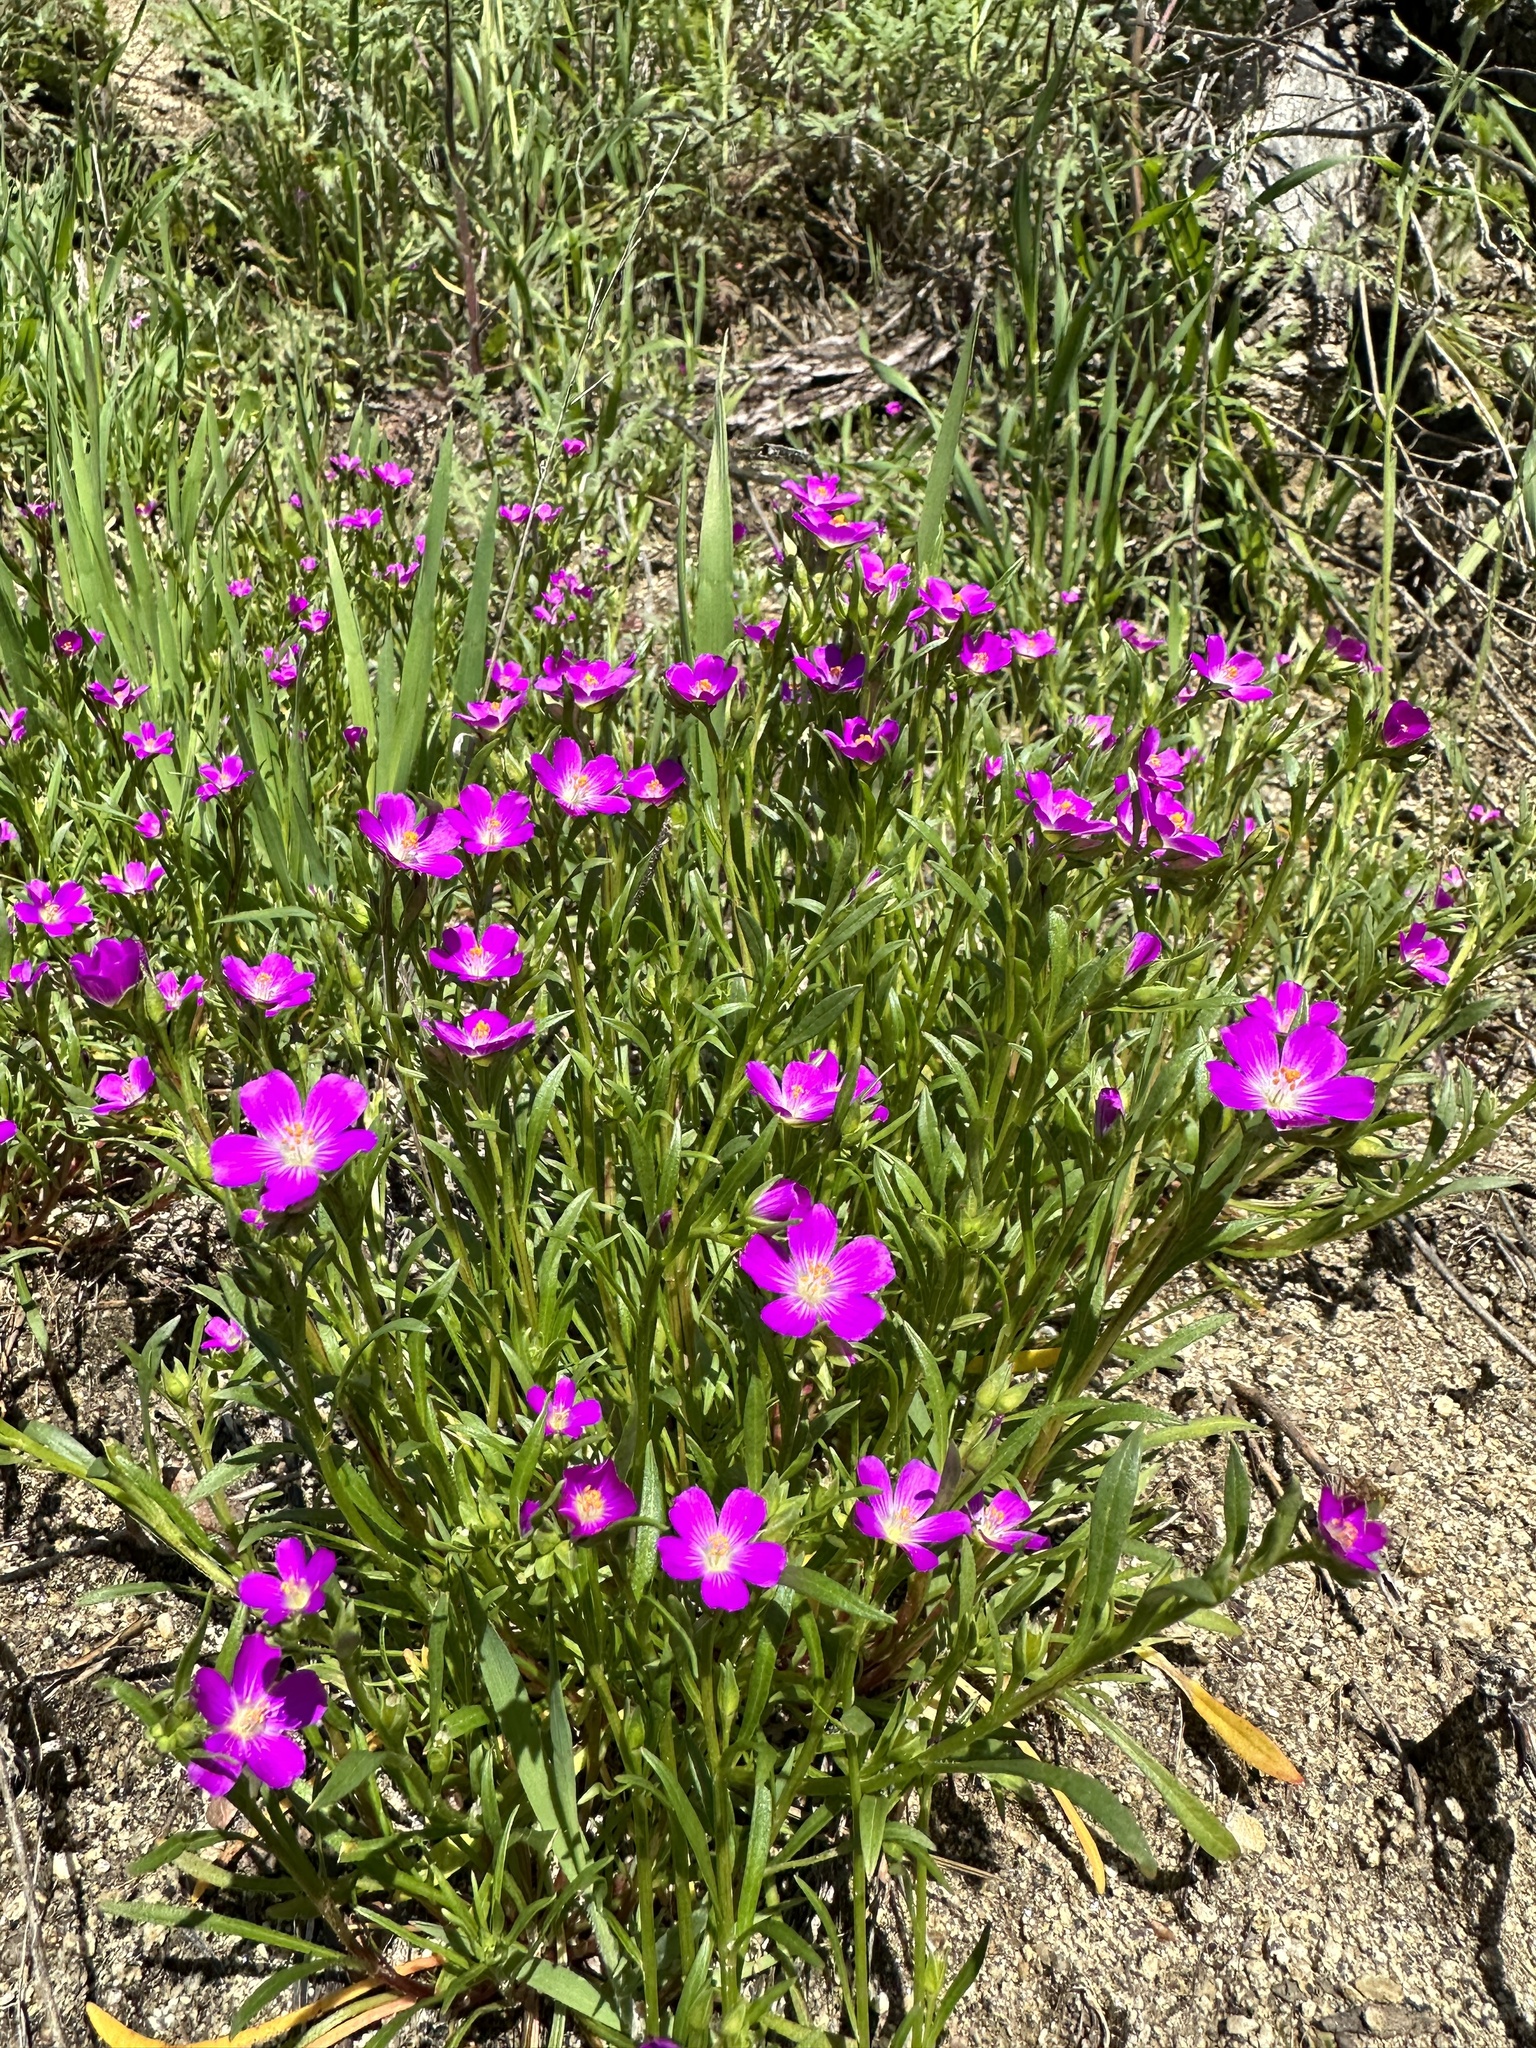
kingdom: Plantae
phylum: Tracheophyta
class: Magnoliopsida
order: Caryophyllales
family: Montiaceae
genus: Calandrinia
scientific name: Calandrinia menziesii
